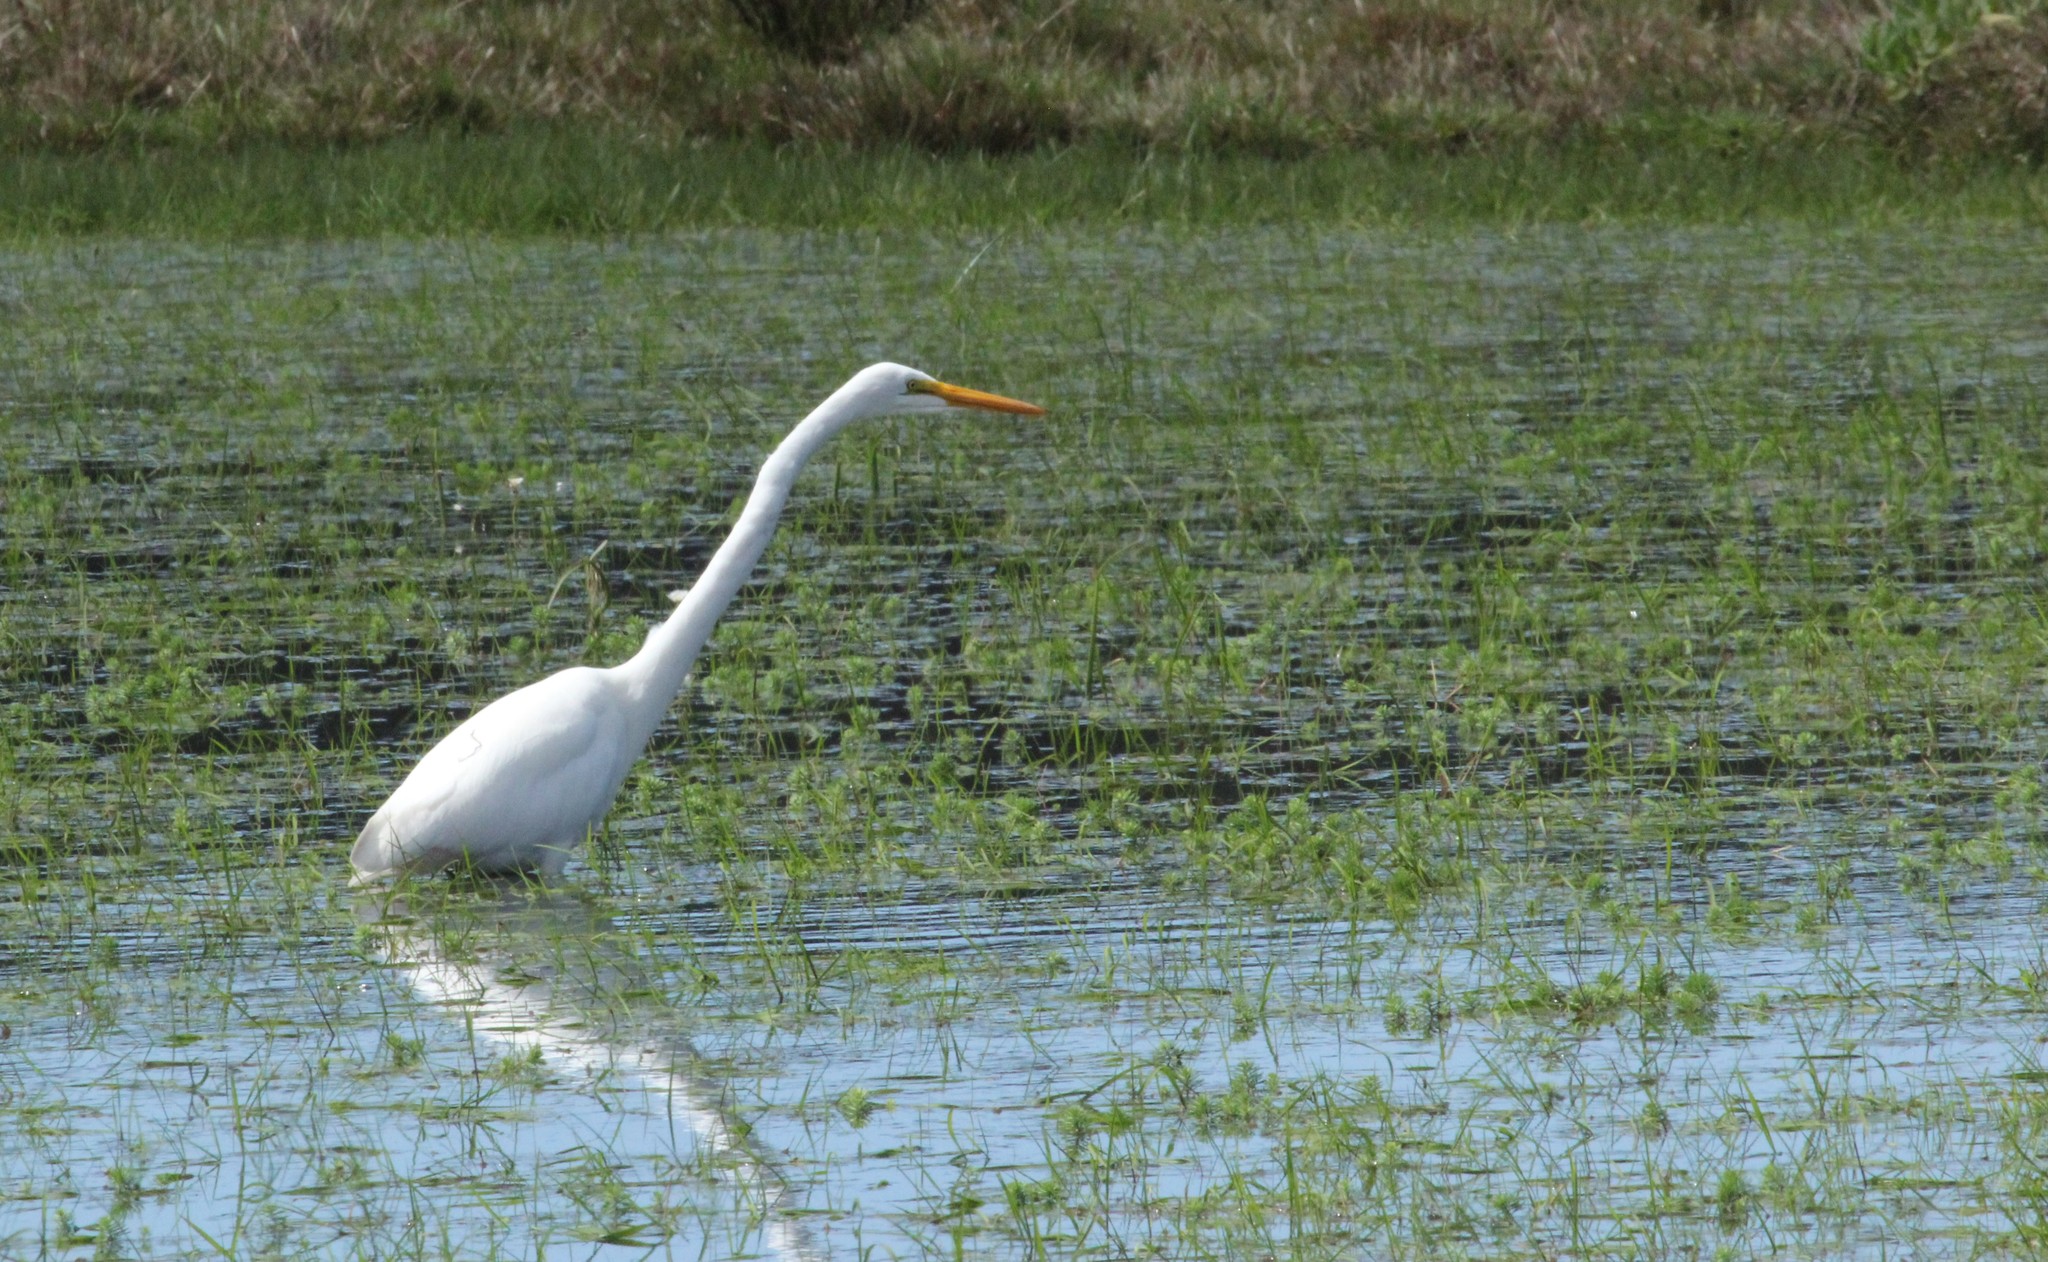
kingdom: Animalia
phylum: Chordata
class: Aves
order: Pelecaniformes
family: Ardeidae
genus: Ardea
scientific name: Ardea alba
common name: Great egret
